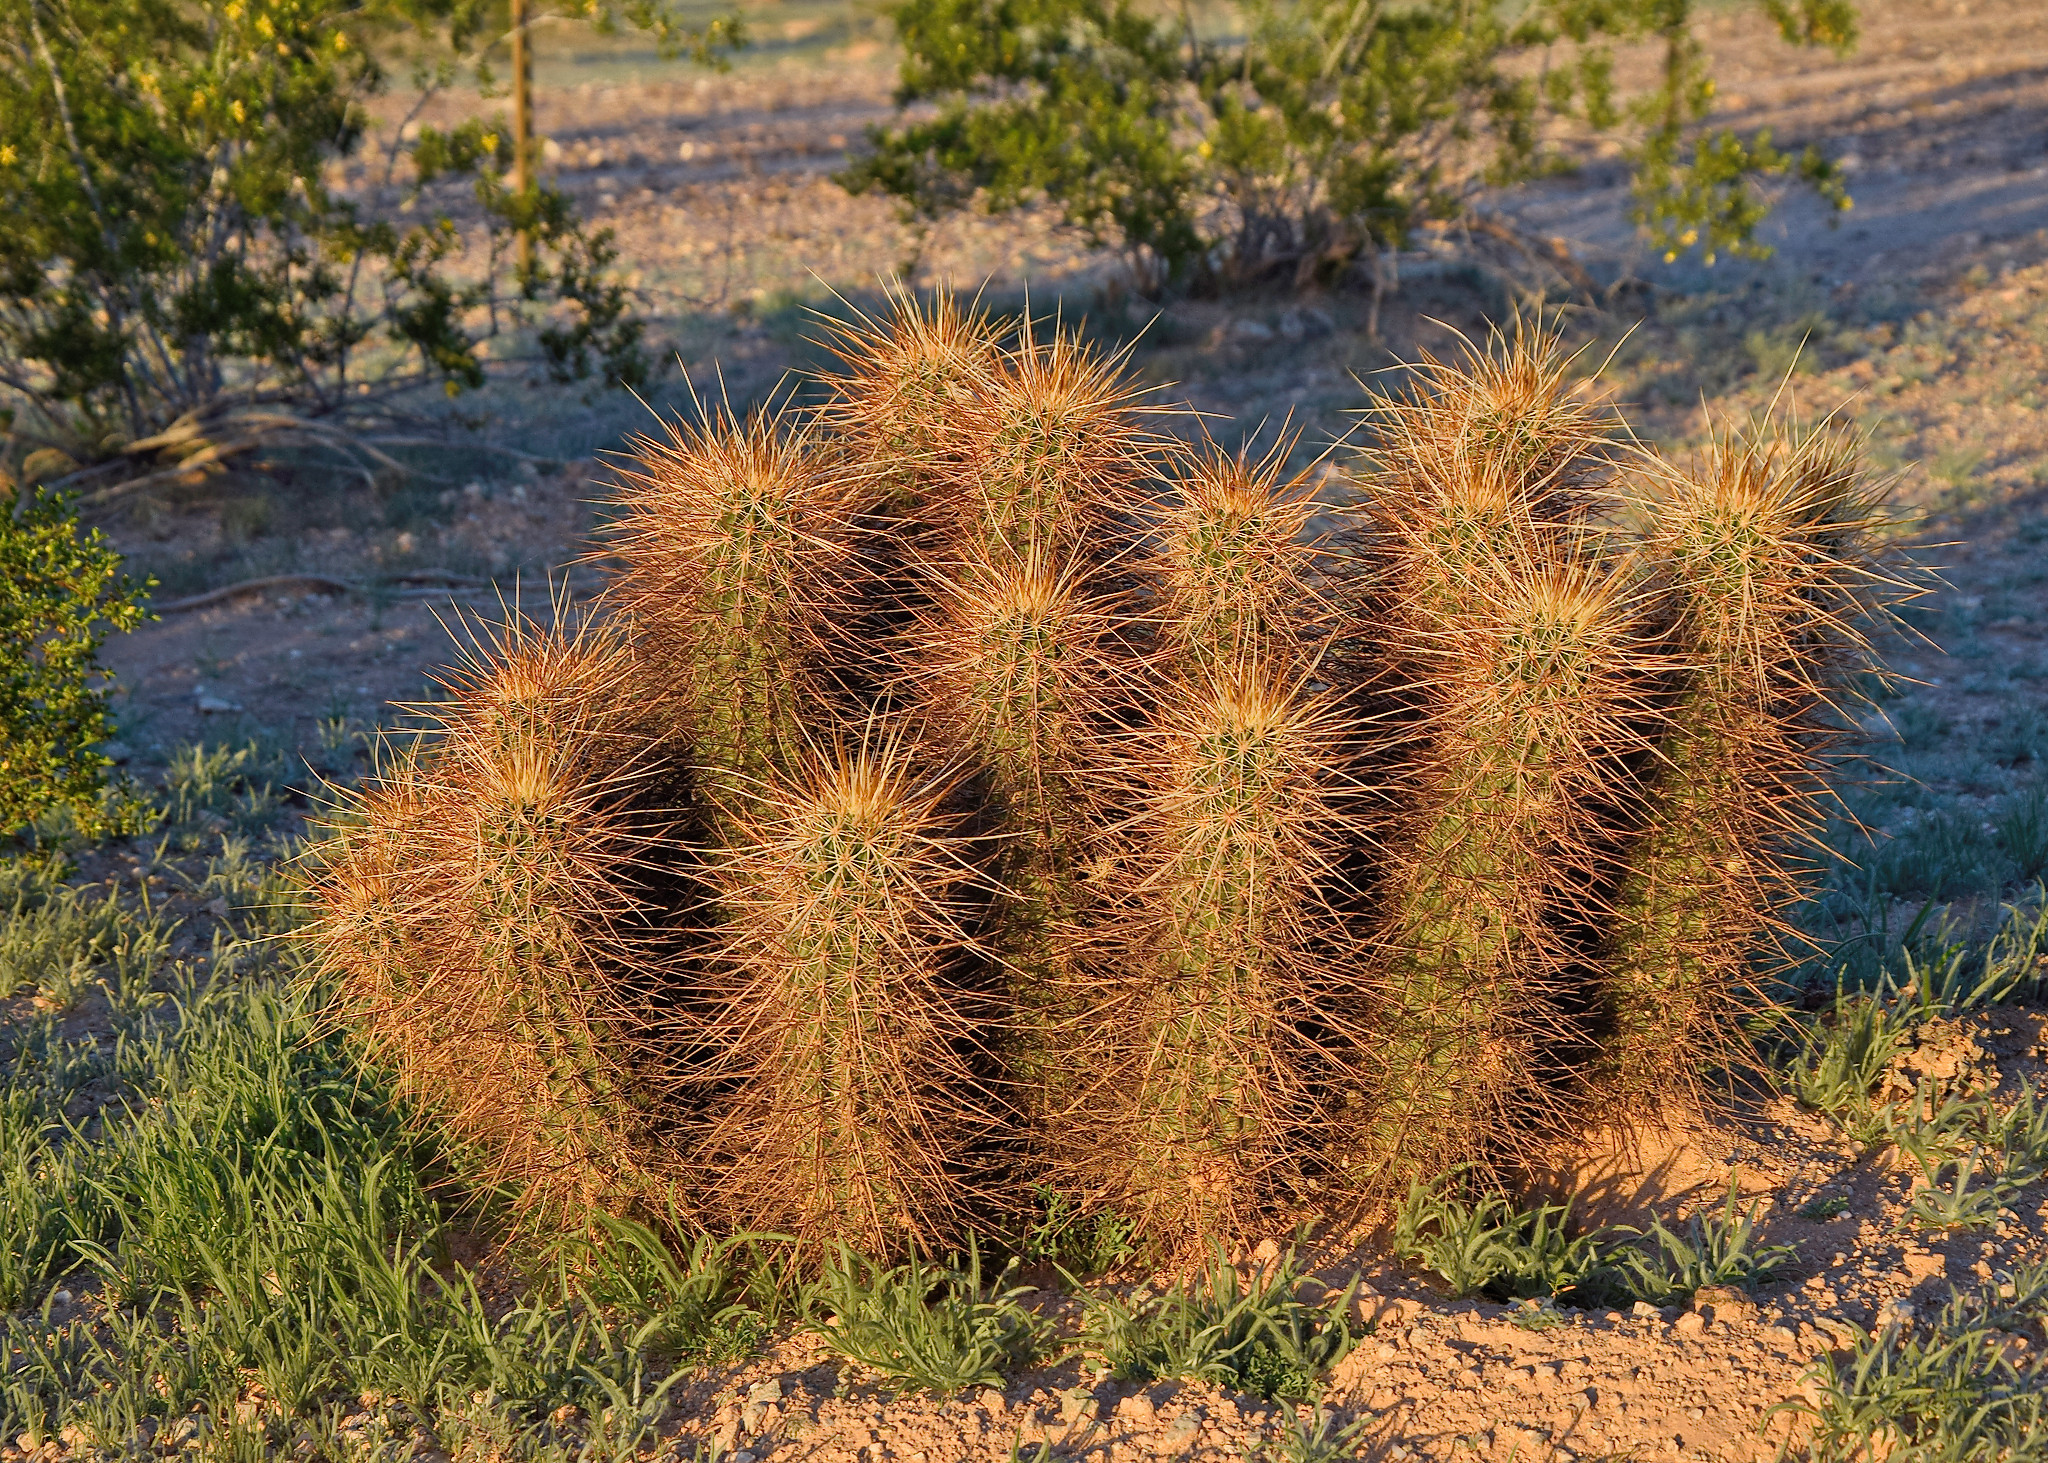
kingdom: Plantae
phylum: Tracheophyta
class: Magnoliopsida
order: Caryophyllales
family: Cactaceae
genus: Echinocereus
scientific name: Echinocereus engelmannii
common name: Engelmann's hedgehog cactus
